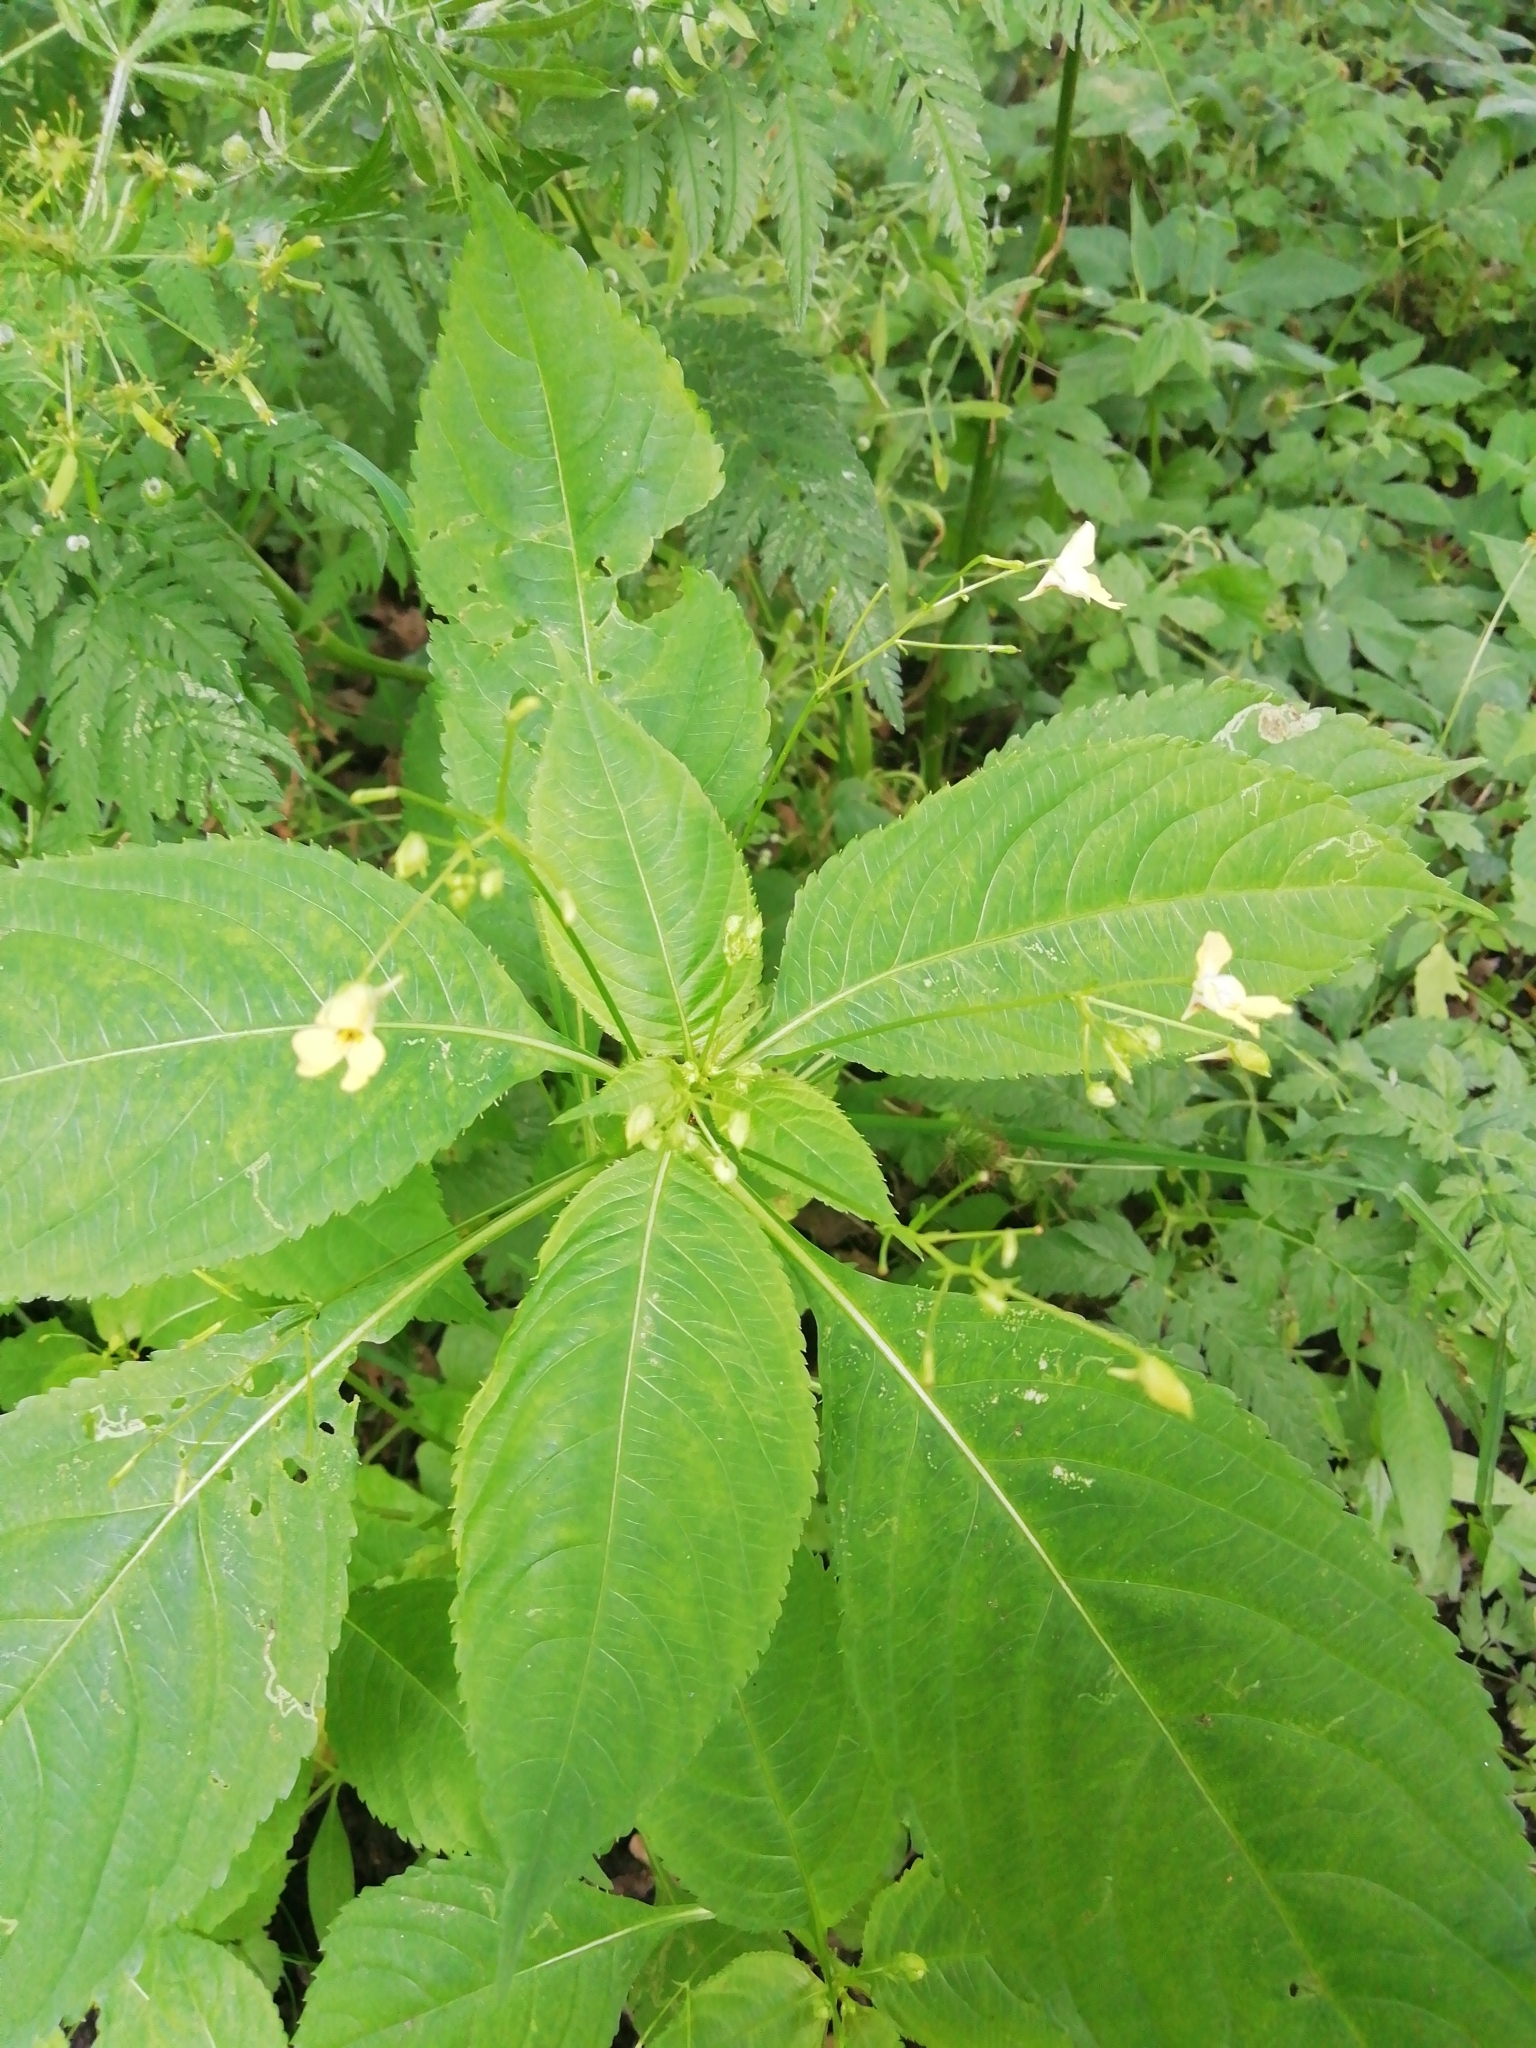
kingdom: Plantae
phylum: Tracheophyta
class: Magnoliopsida
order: Ericales
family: Balsaminaceae
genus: Impatiens
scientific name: Impatiens parviflora
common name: Small balsam
